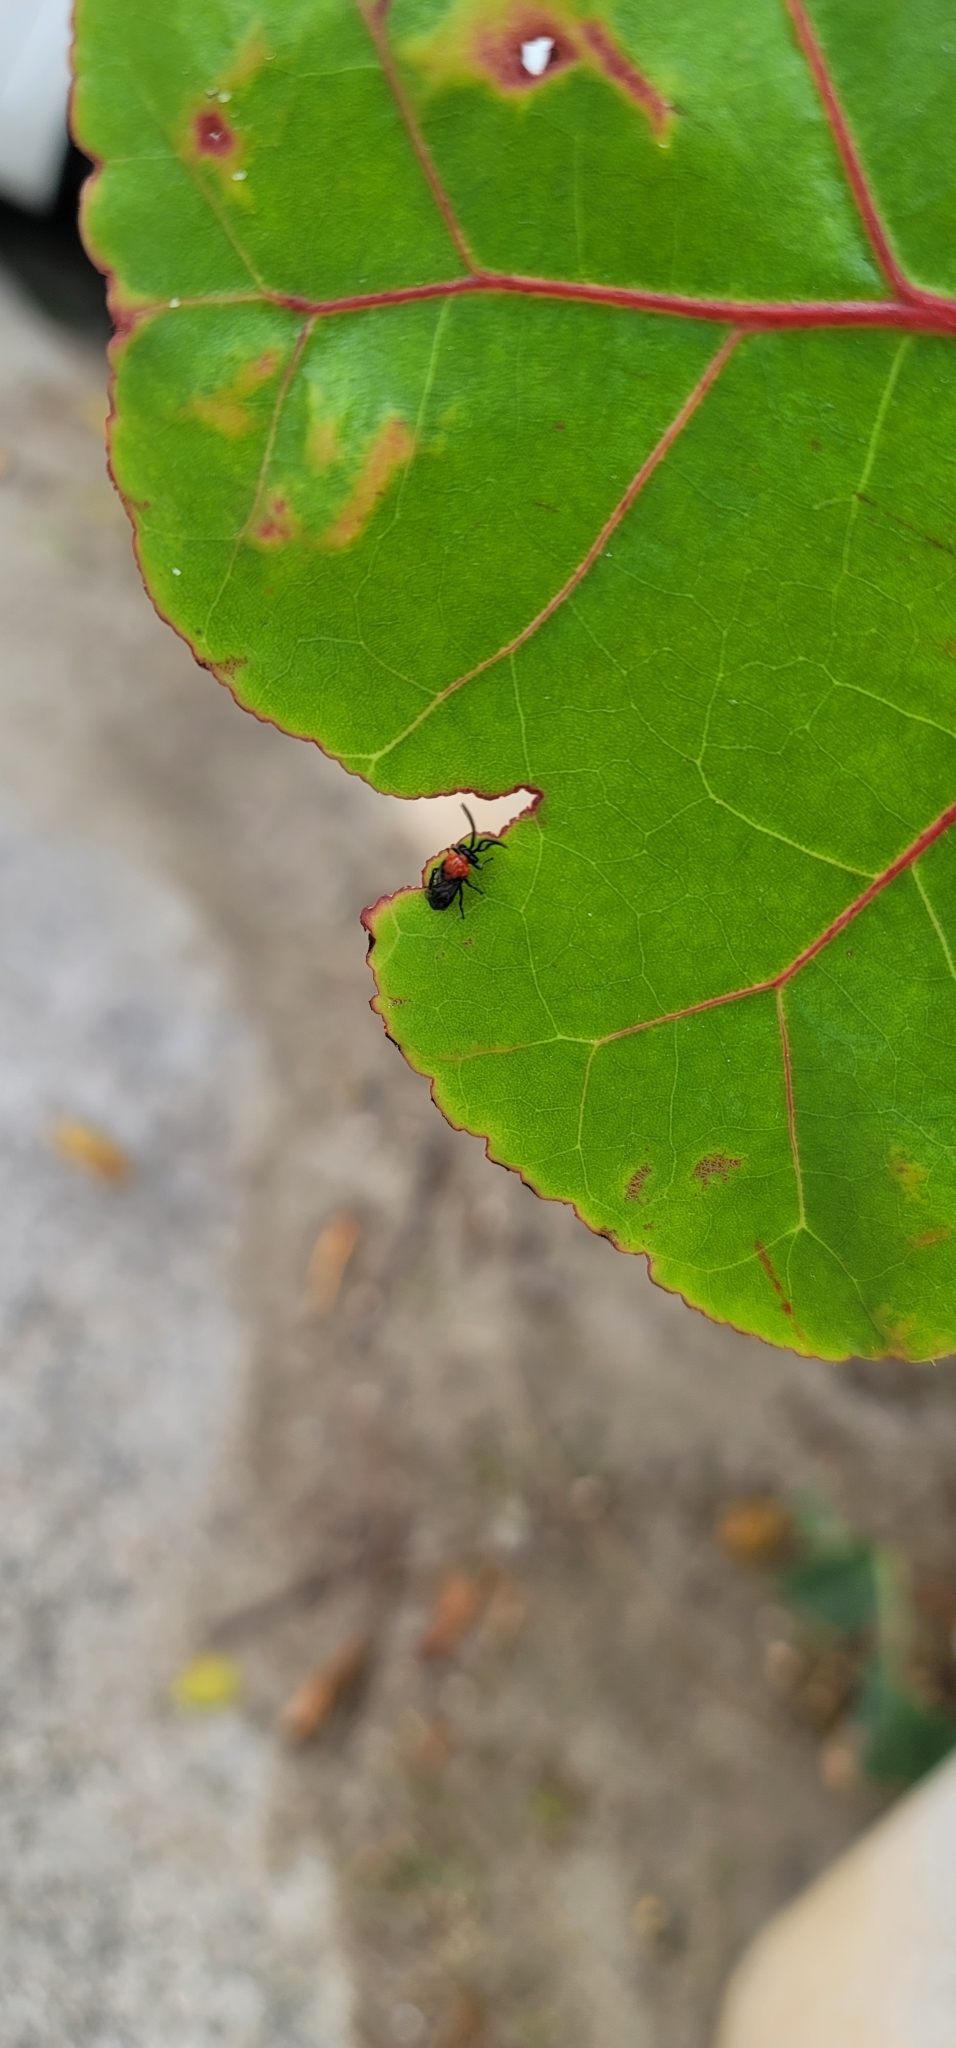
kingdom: Animalia
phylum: Arthropoda
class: Insecta
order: Hymenoptera
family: Argidae
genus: Sericoceros
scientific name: Sericoceros
